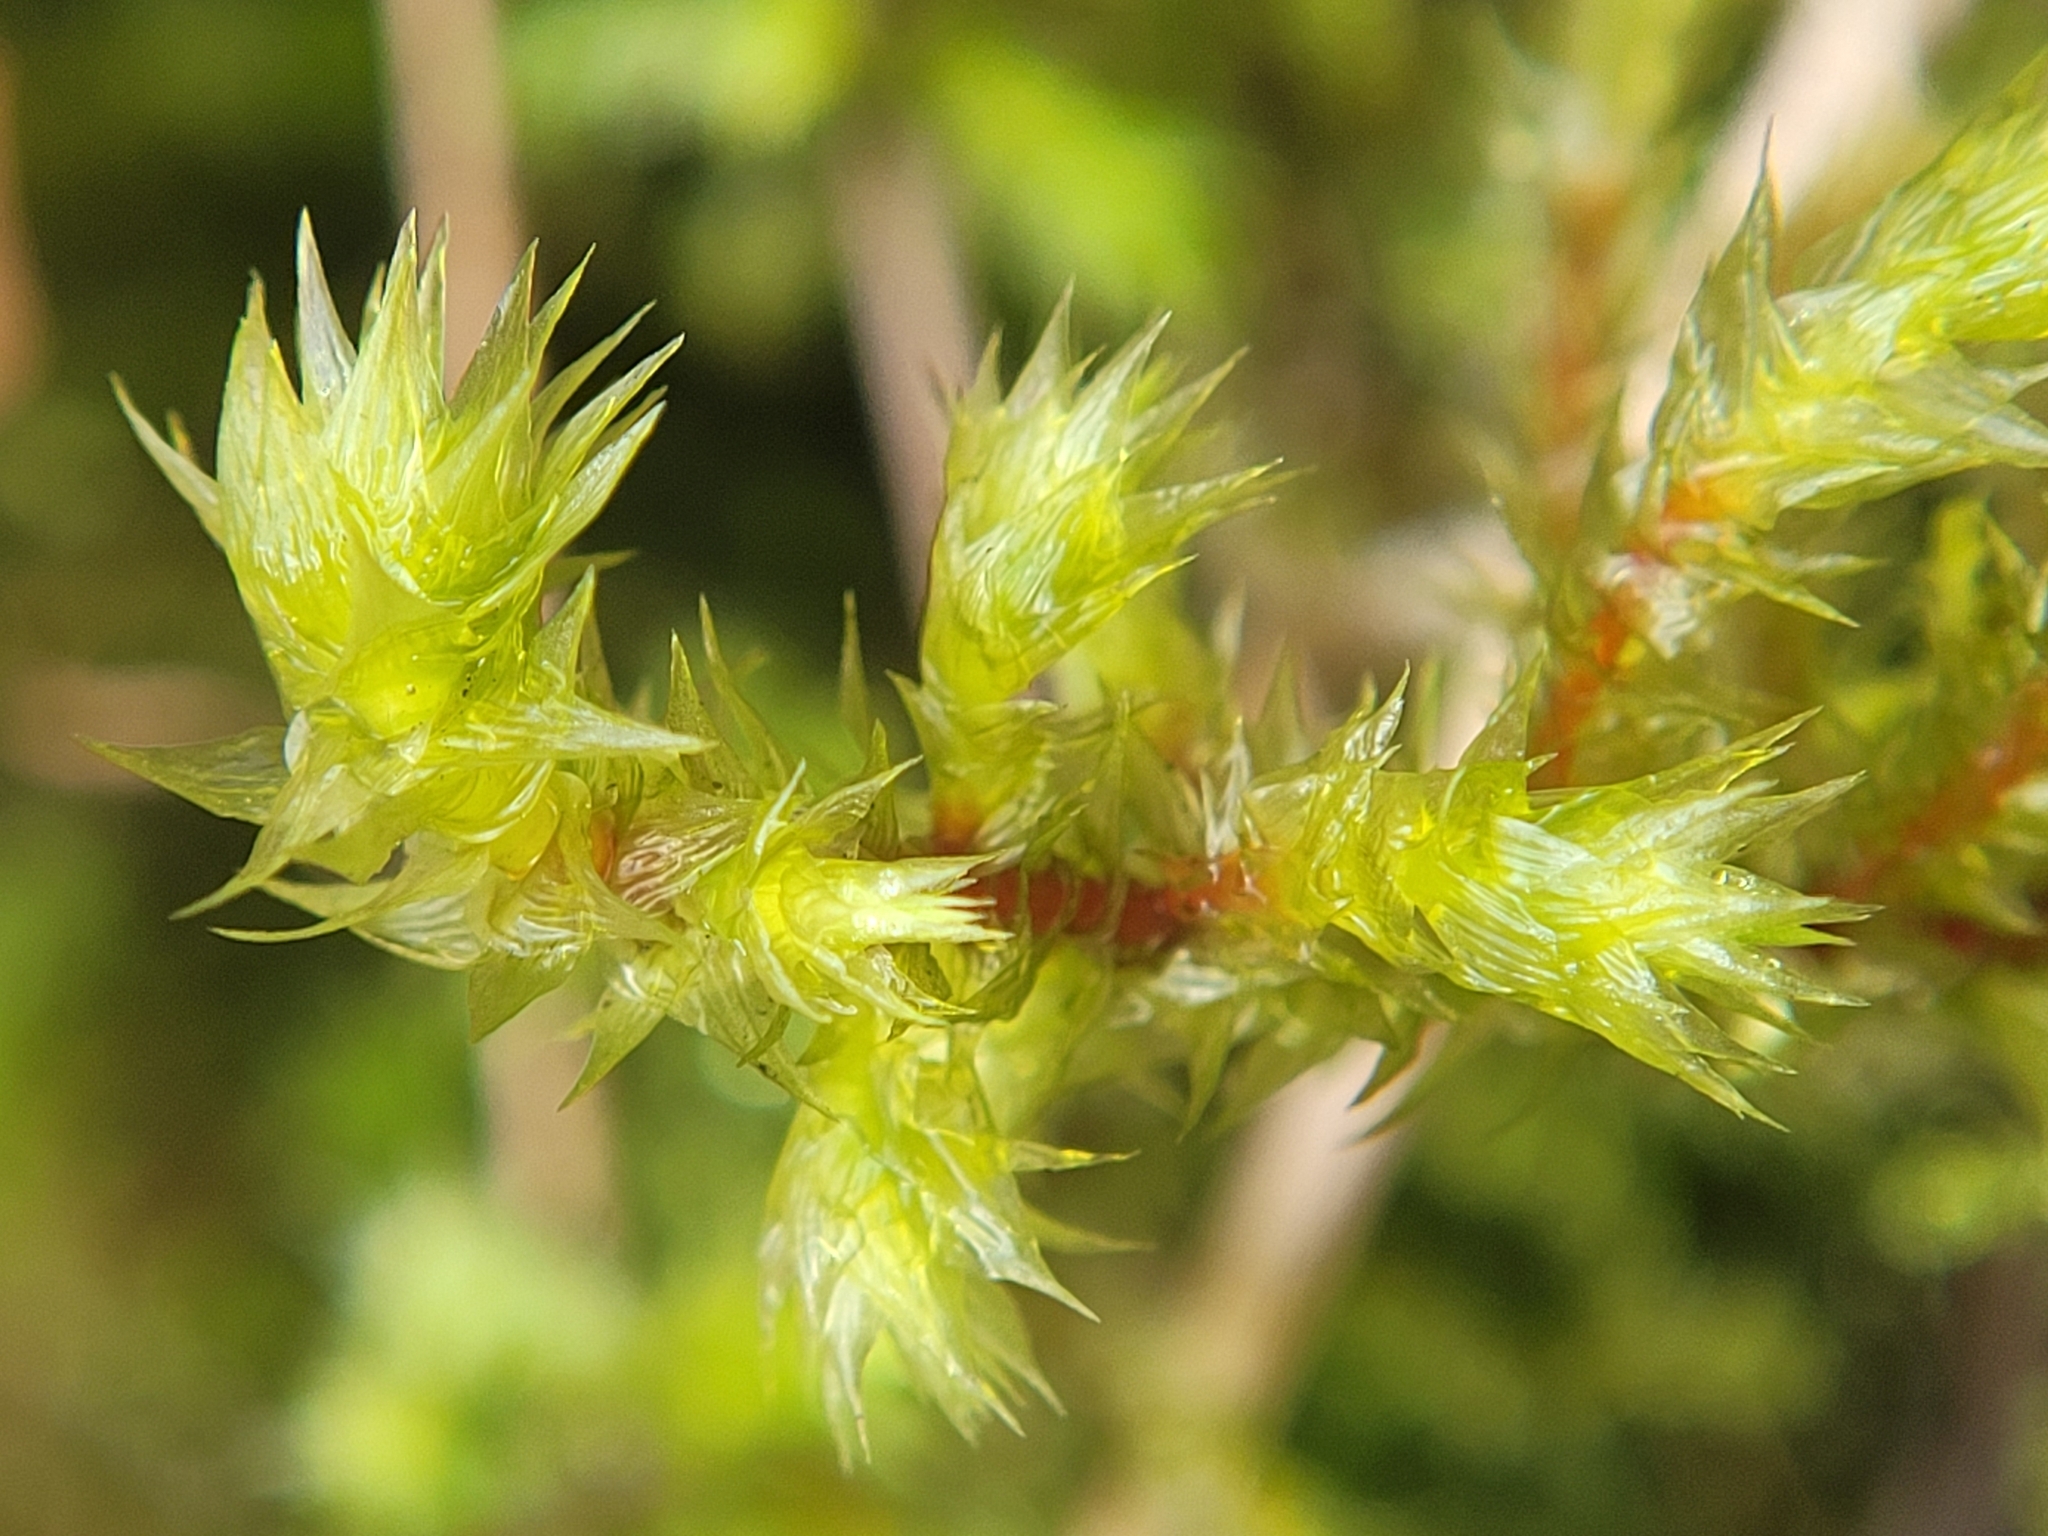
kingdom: Plantae
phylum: Bryophyta
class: Bryopsida
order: Hypnales
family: Hylocomiaceae
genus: Hylocomiadelphus
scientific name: Hylocomiadelphus triquetrus
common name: Rough goose neck moss
